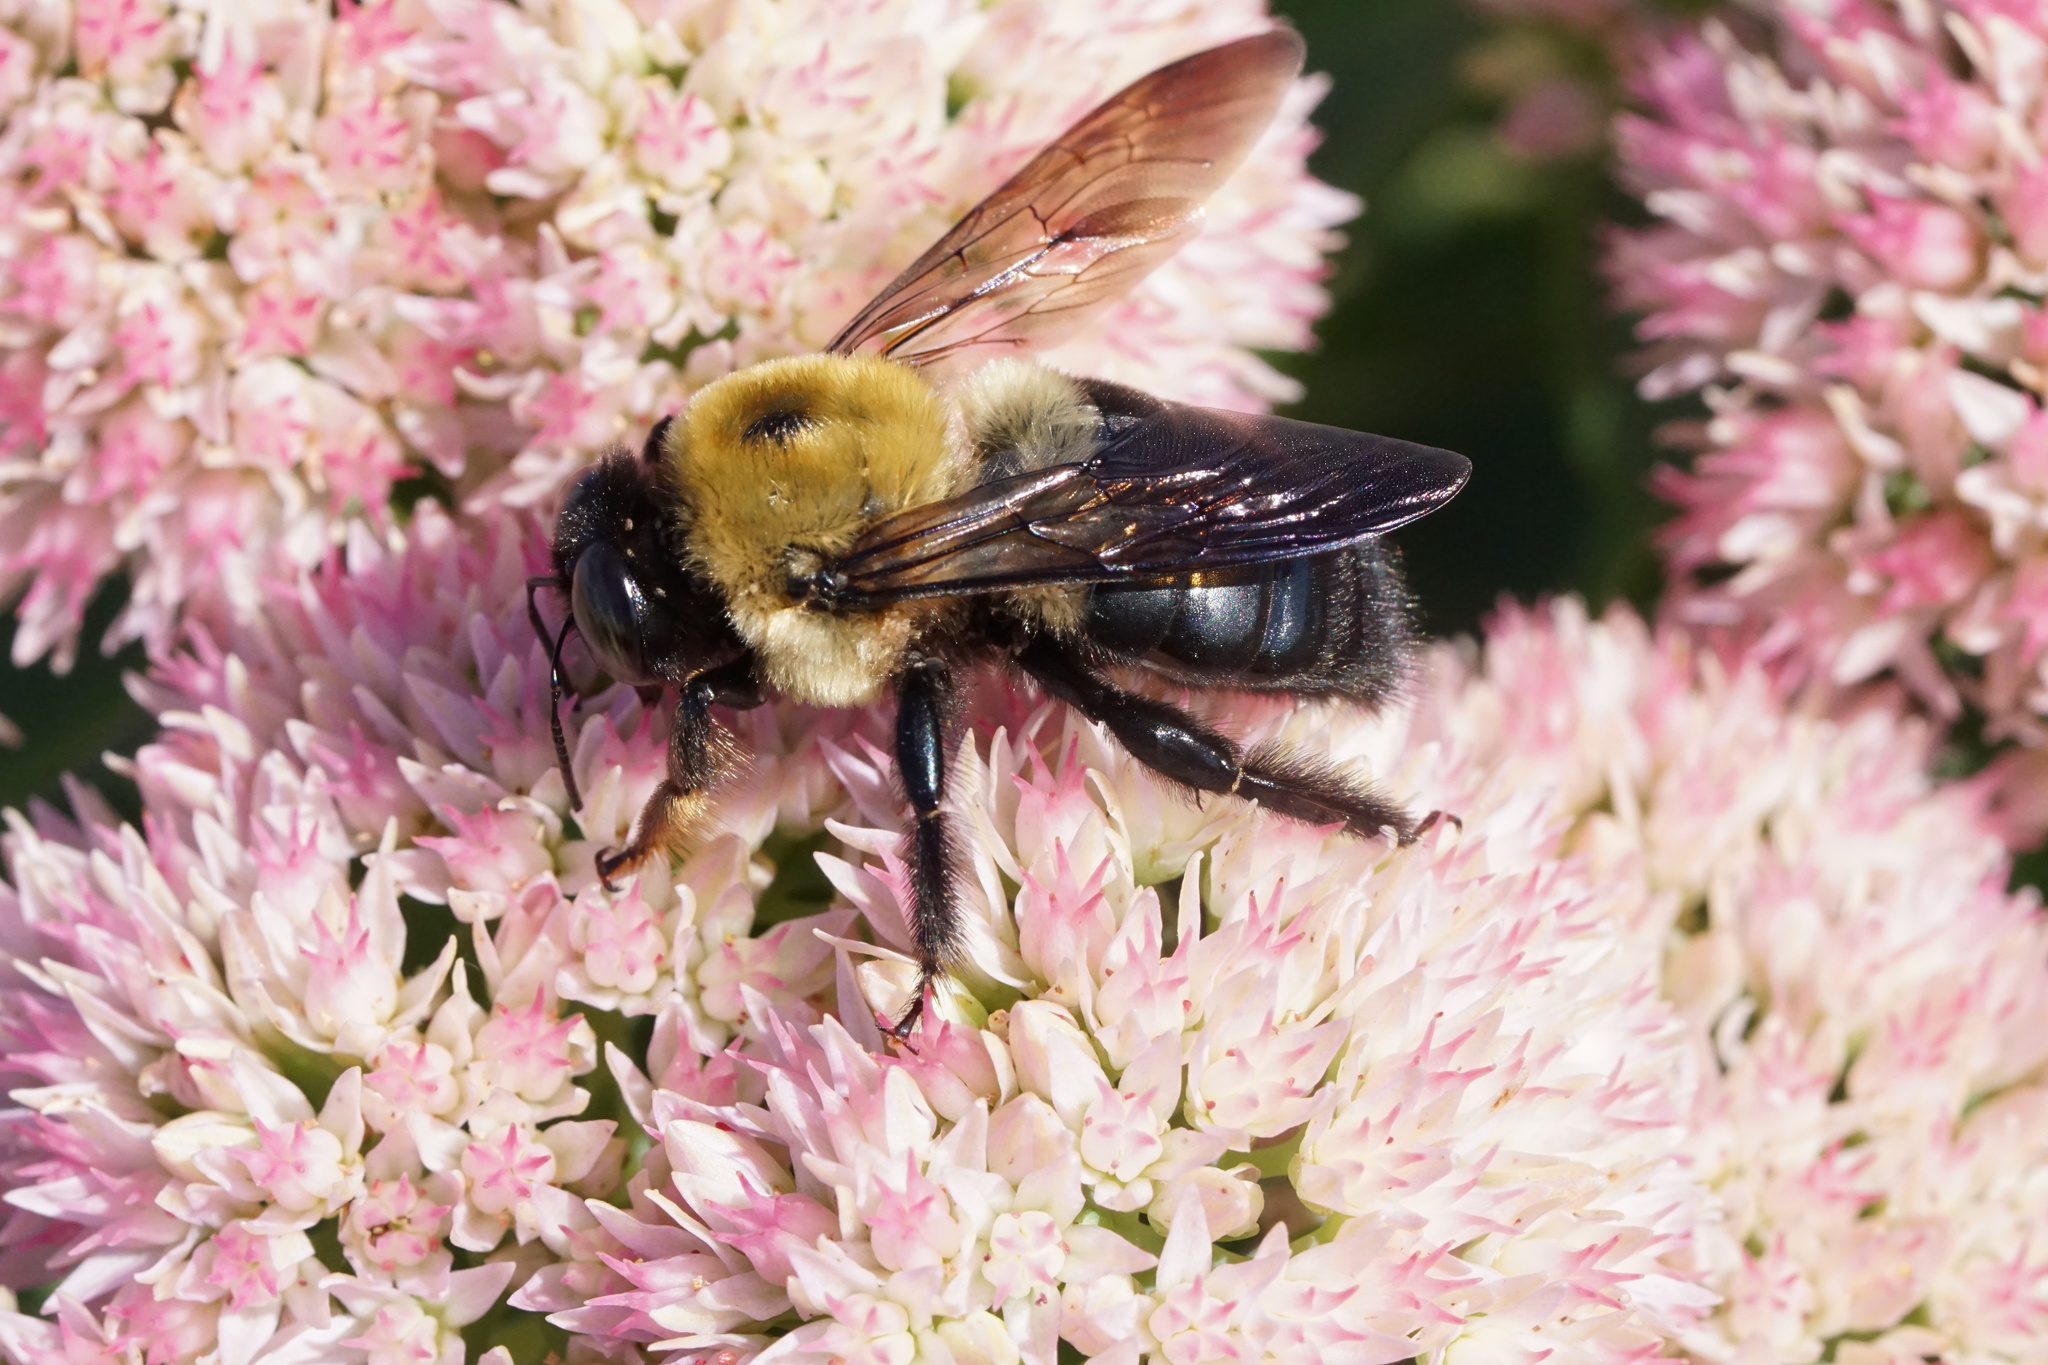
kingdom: Animalia
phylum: Arthropoda
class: Insecta
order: Hymenoptera
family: Apidae
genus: Xylocopa
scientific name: Xylocopa virginica
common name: Carpenter bee
